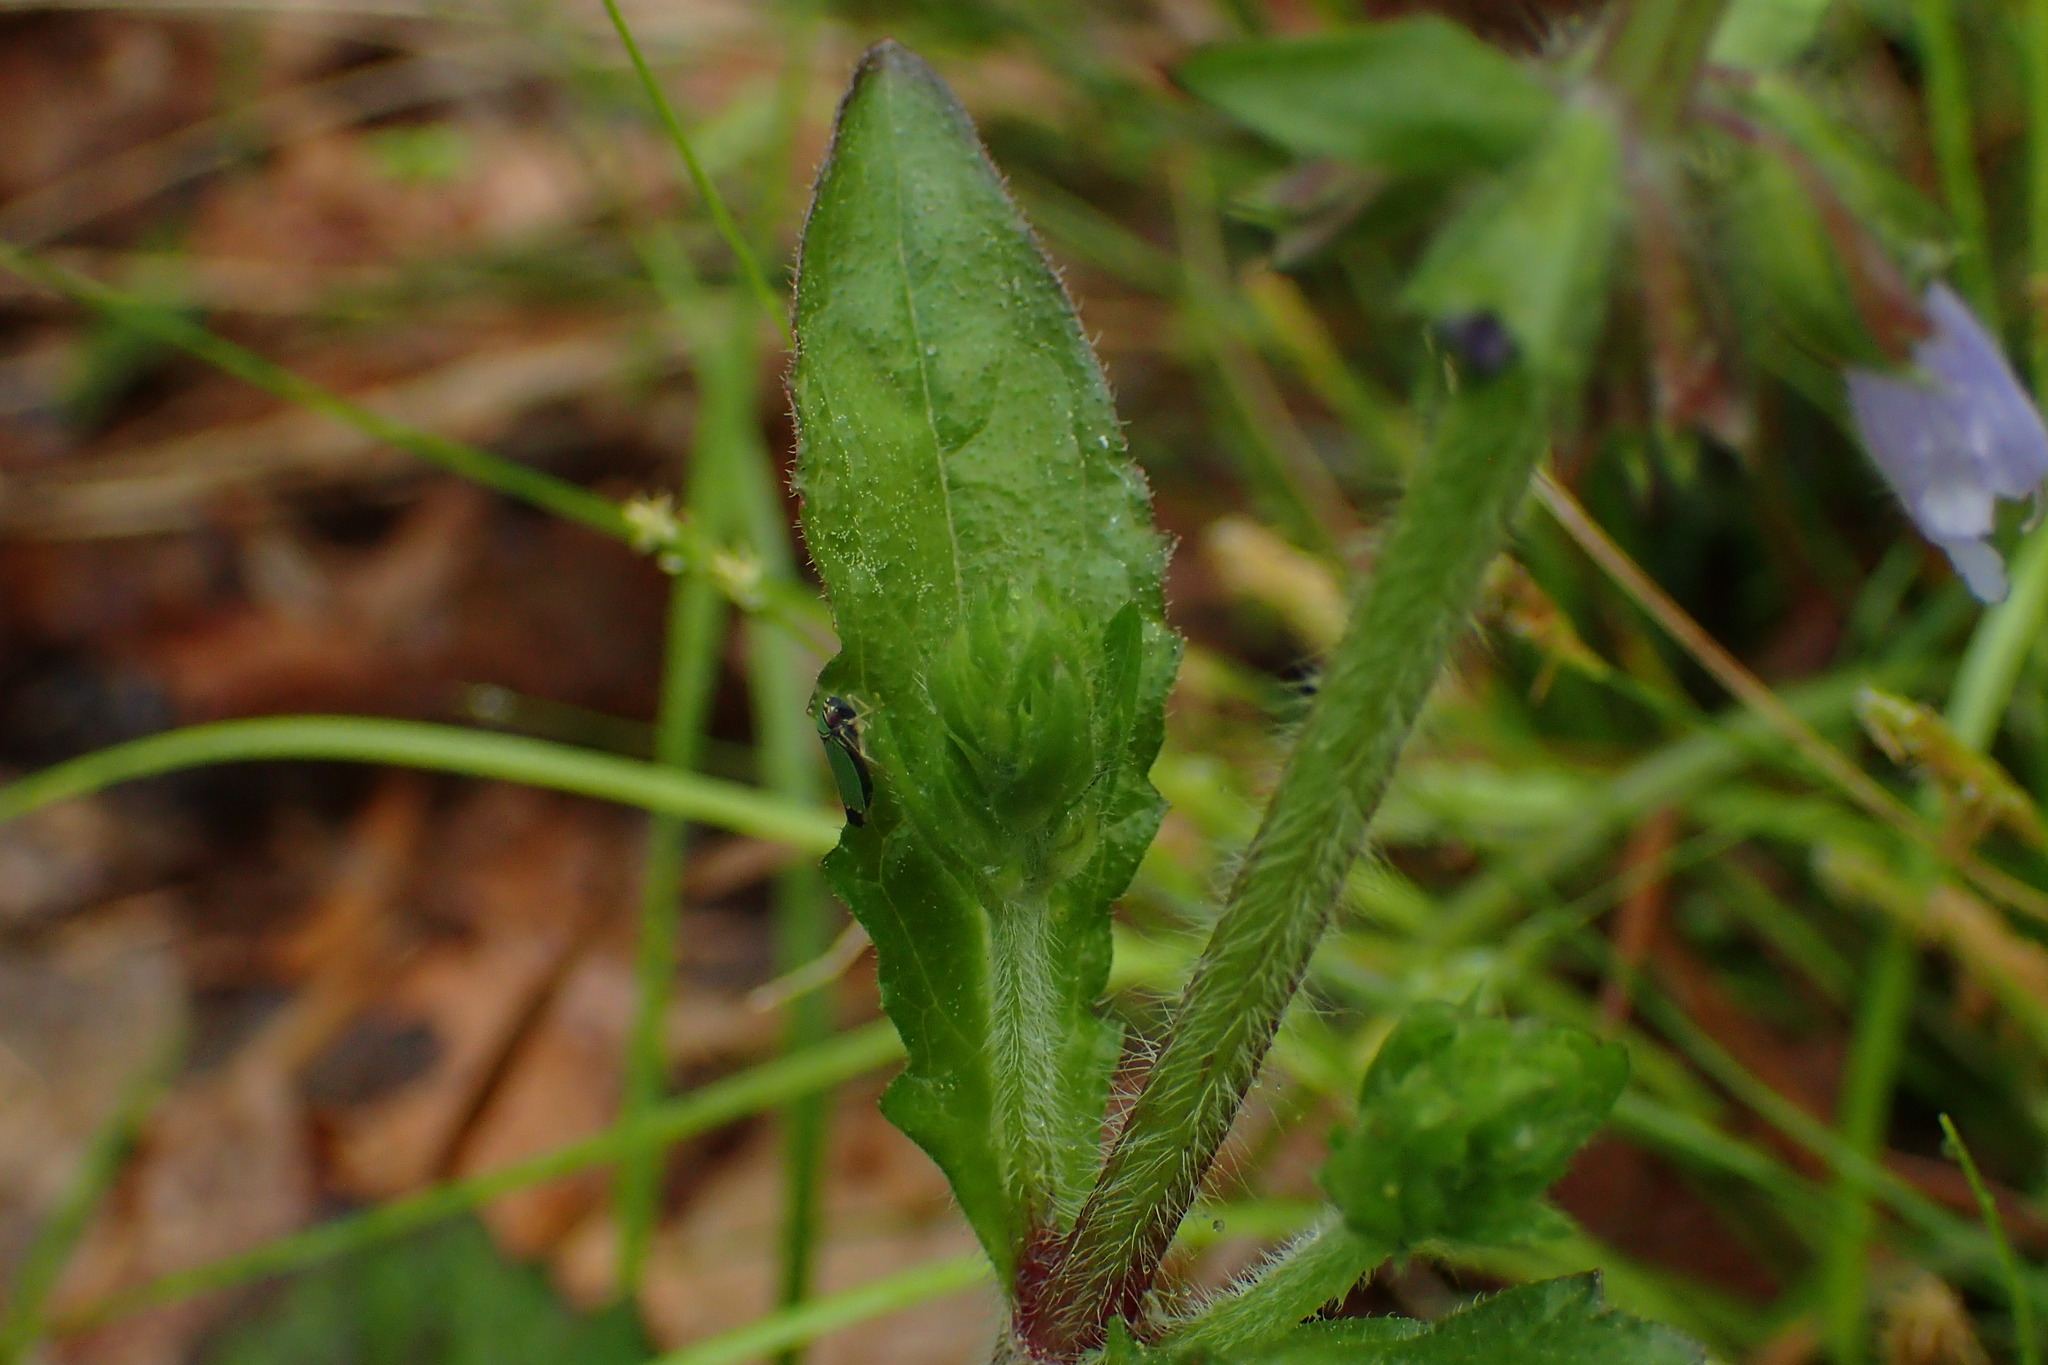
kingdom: Plantae
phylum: Tracheophyta
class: Magnoliopsida
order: Lamiales
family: Lamiaceae
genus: Salvia
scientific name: Salvia lyrata
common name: Cancerweed
